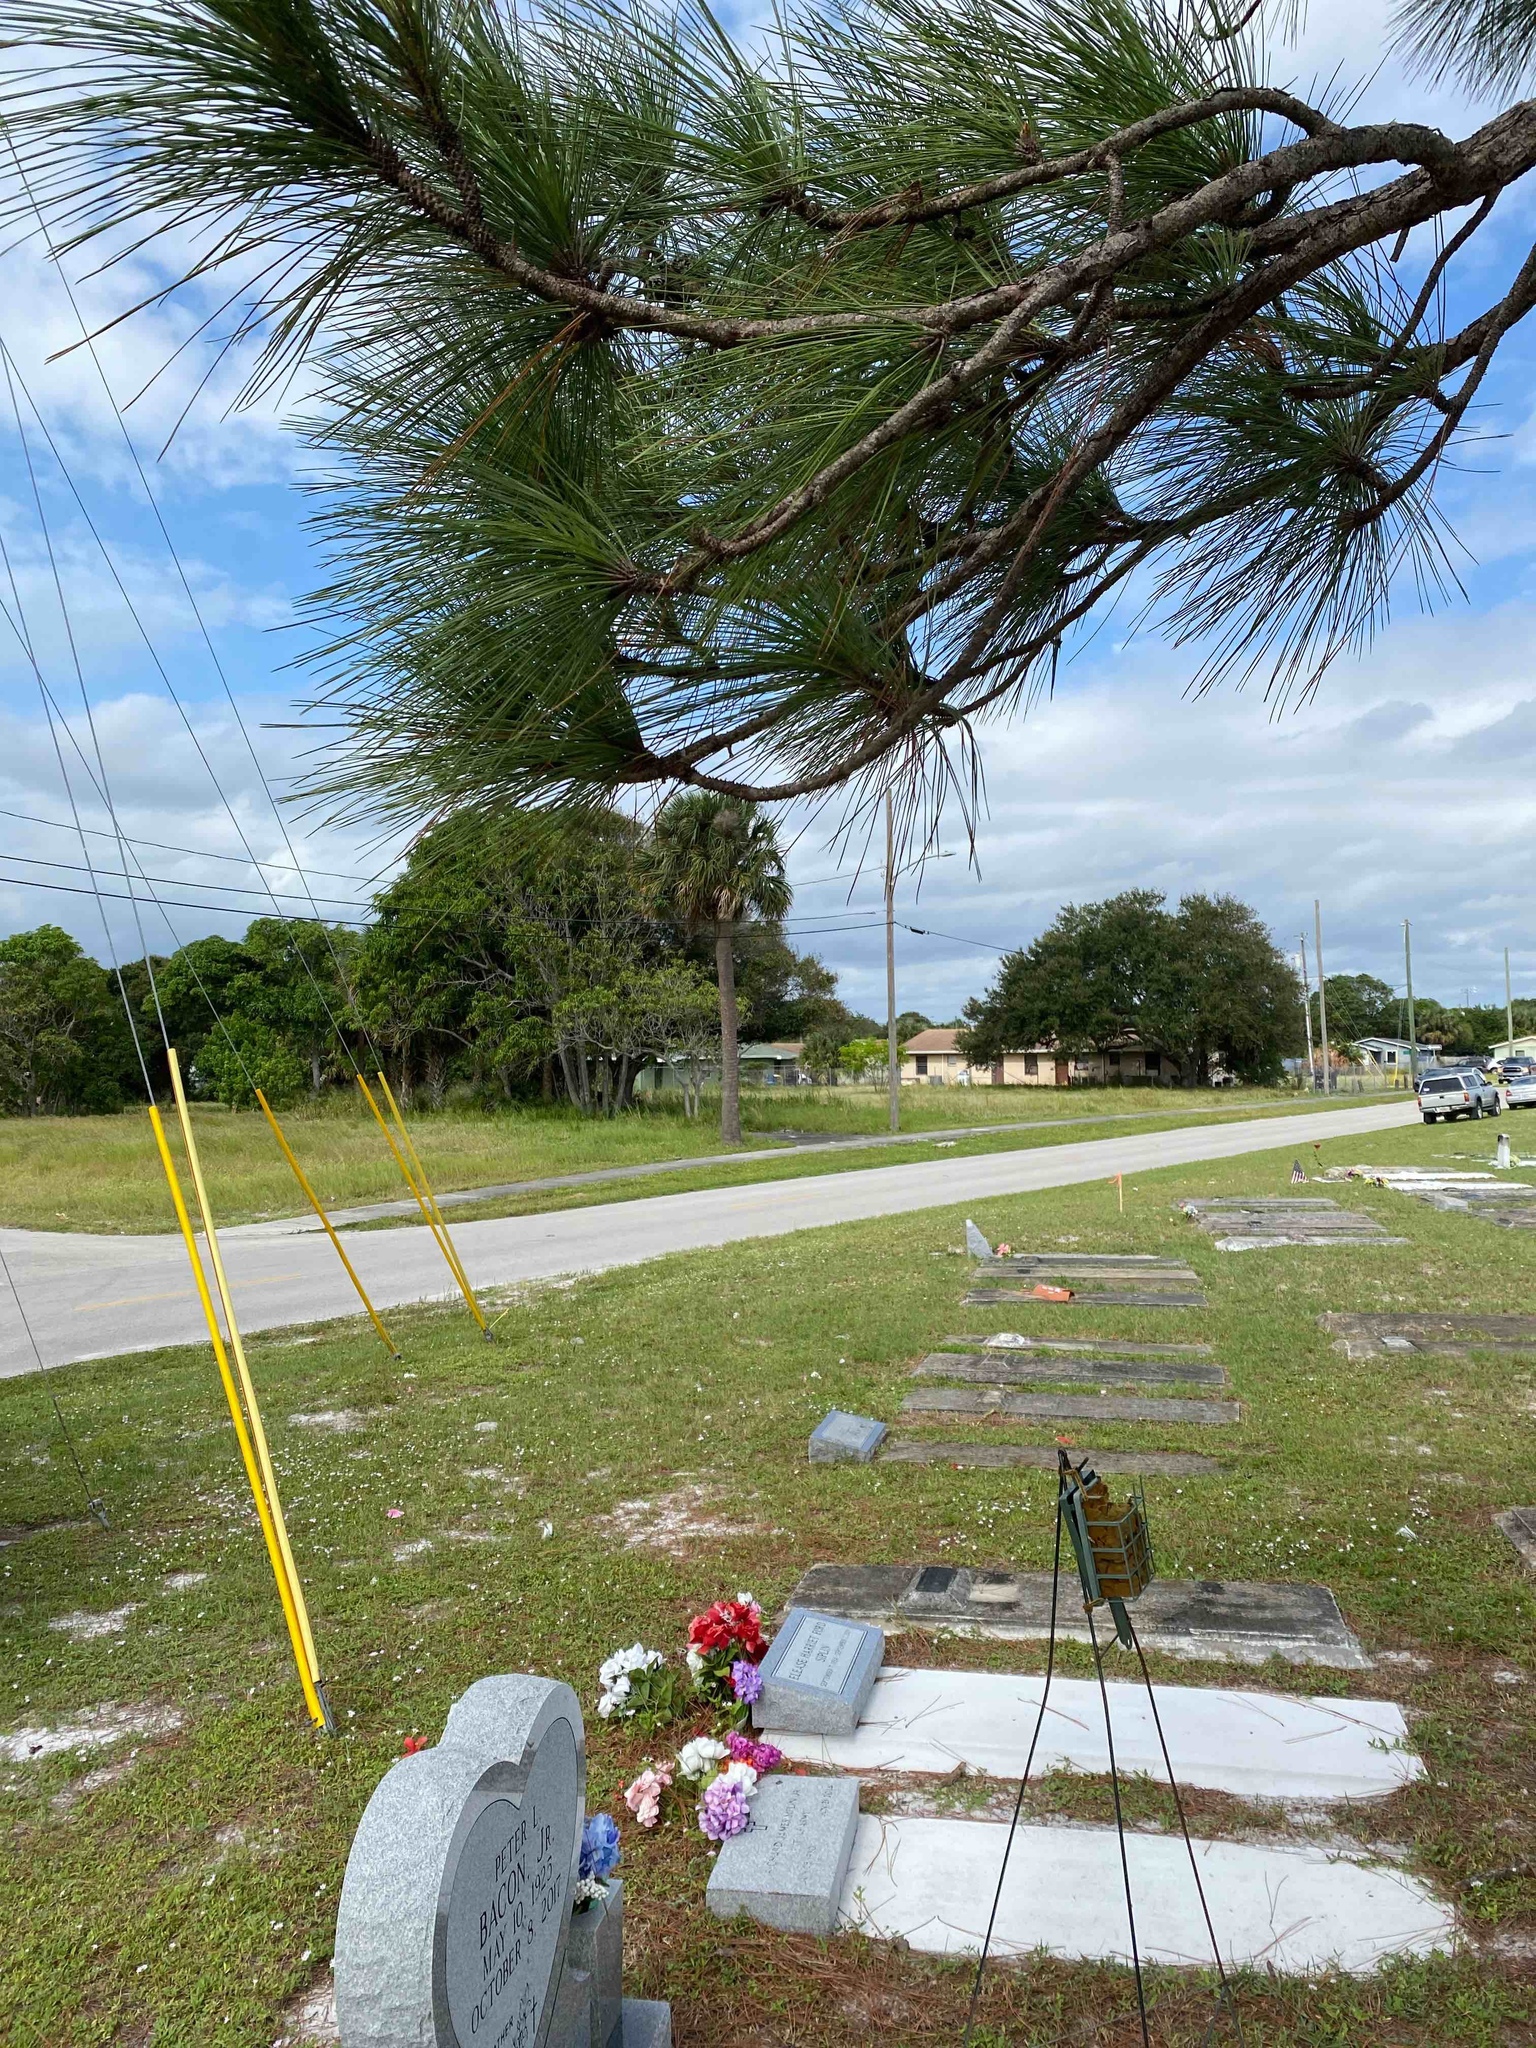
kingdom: Plantae
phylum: Tracheophyta
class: Pinopsida
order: Pinales
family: Pinaceae
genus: Pinus
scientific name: Pinus elliottii
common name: Slash pine
